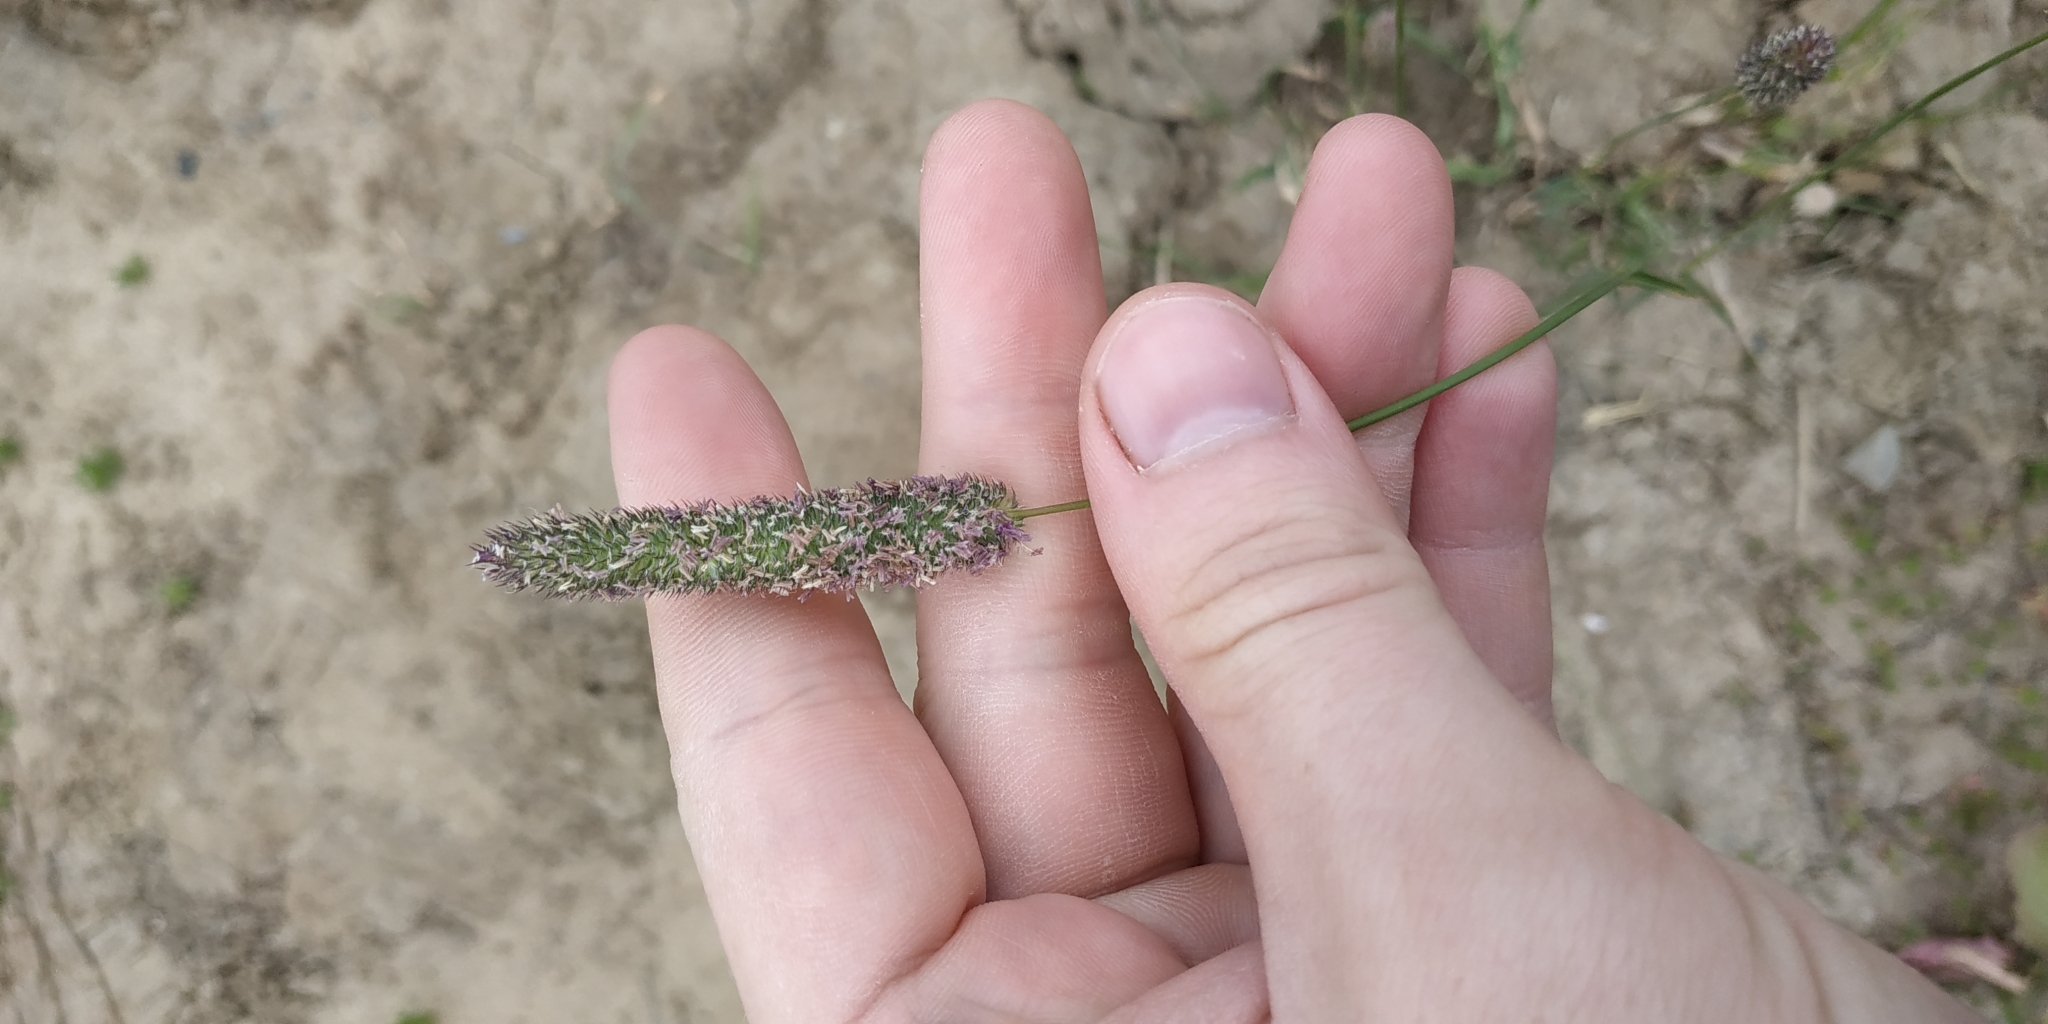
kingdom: Plantae
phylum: Tracheophyta
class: Liliopsida
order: Poales
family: Poaceae
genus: Phleum
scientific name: Phleum pratense
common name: Timothy grass
